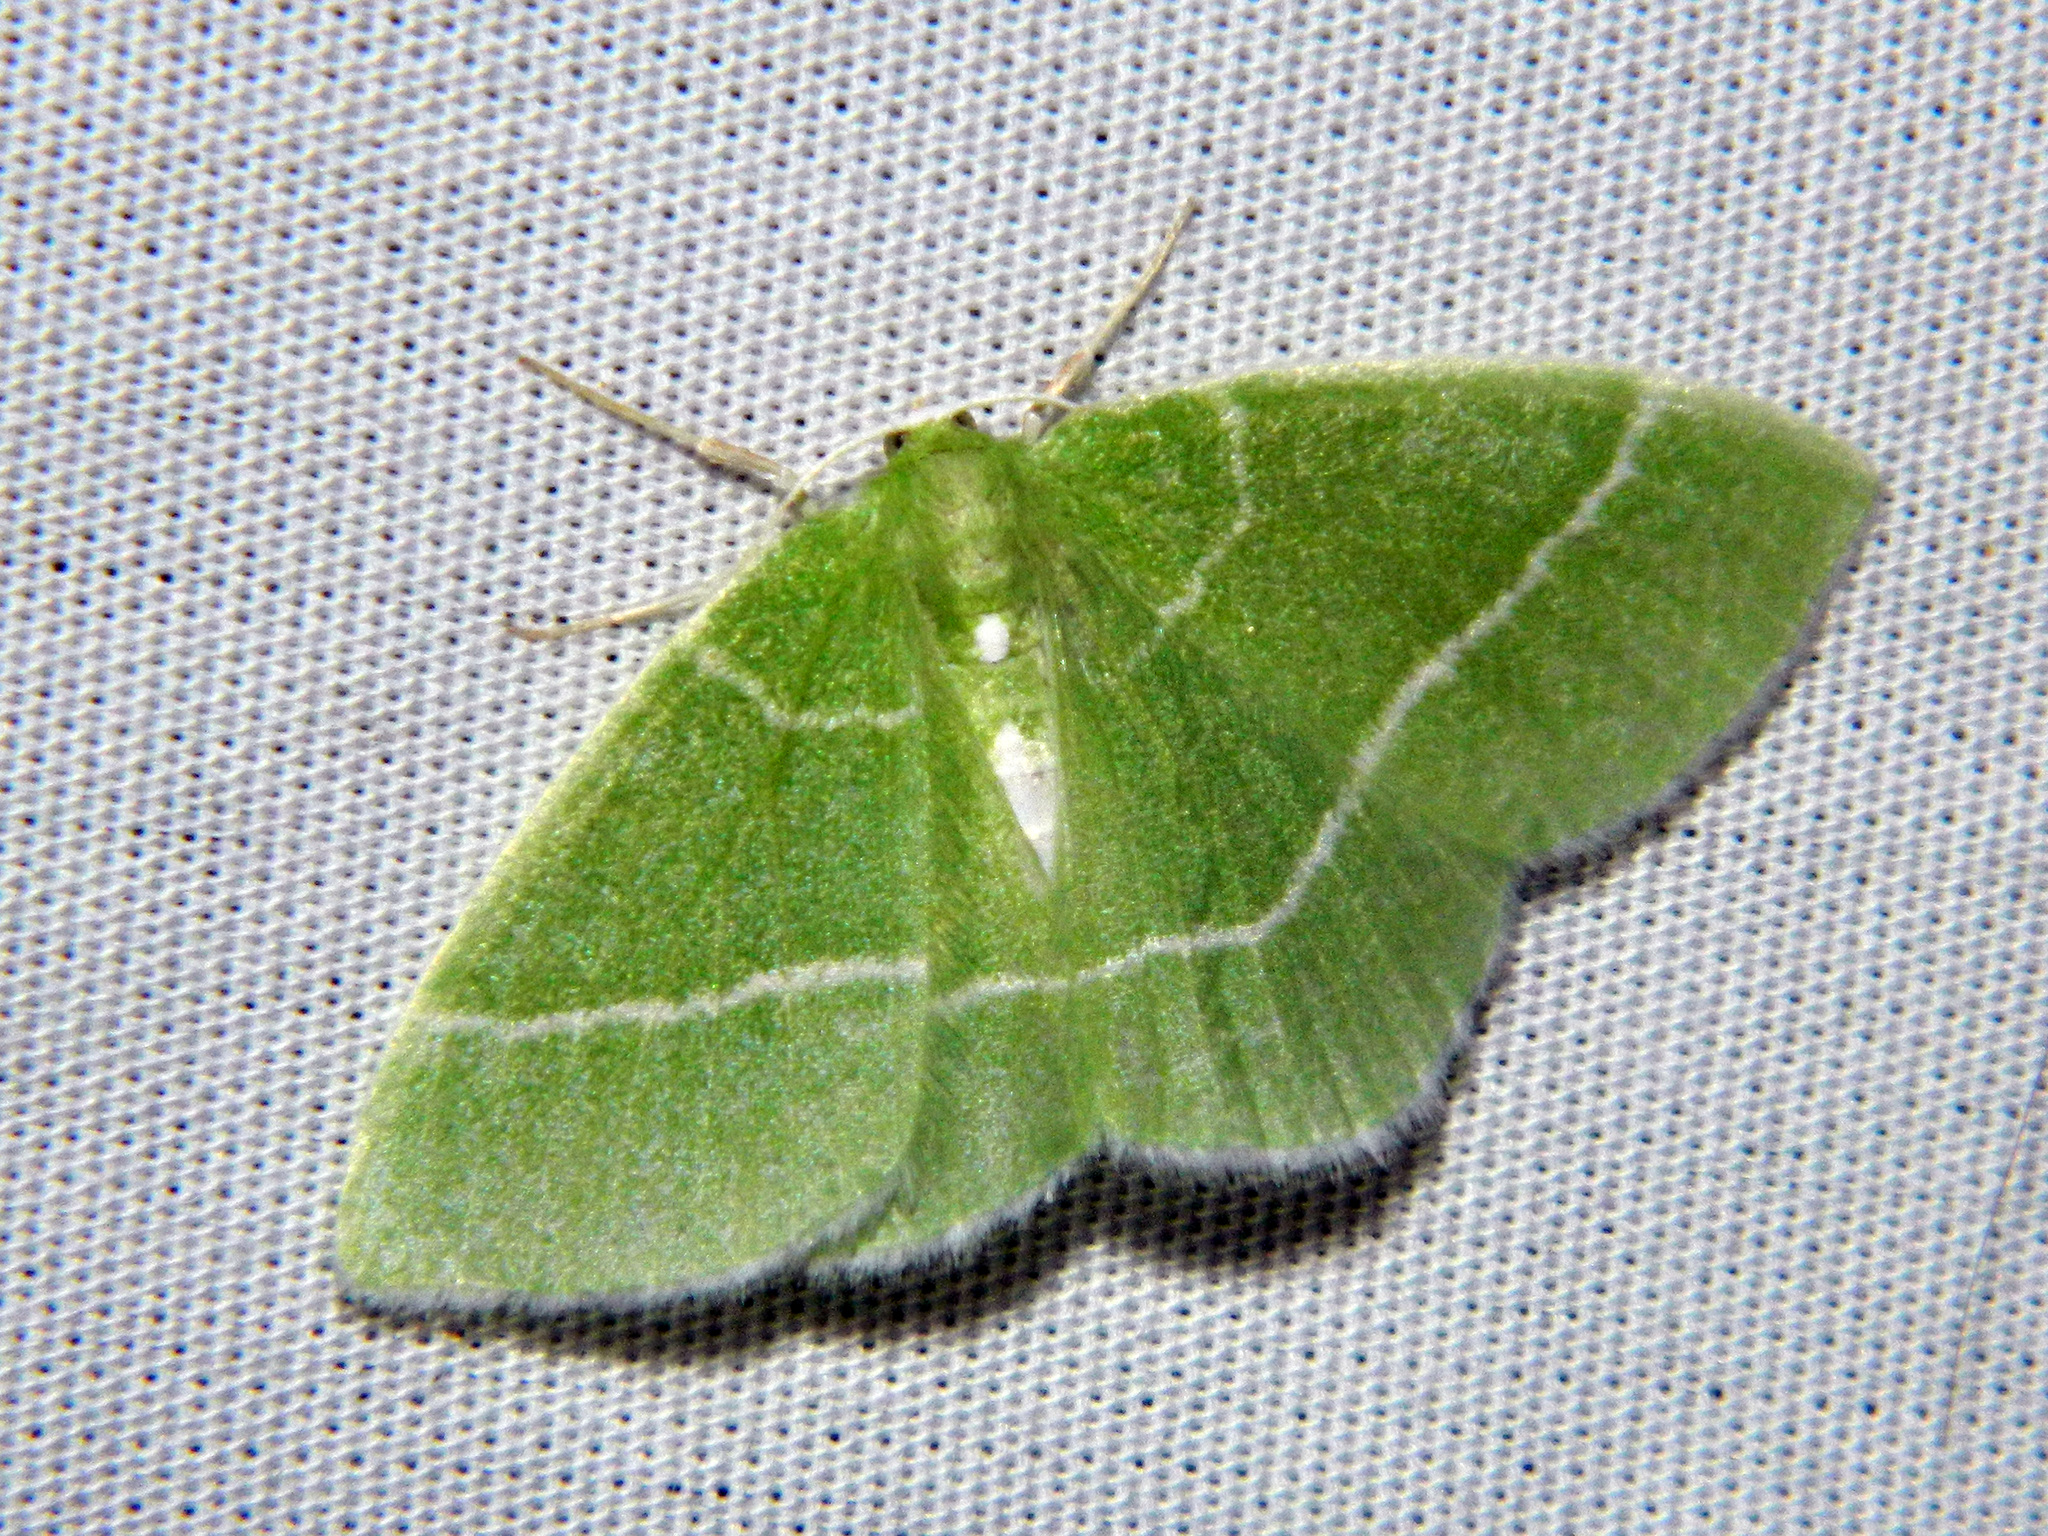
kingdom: Animalia
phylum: Arthropoda
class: Insecta
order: Lepidoptera
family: Geometridae
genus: Nemoria
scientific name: Nemoria mimosaria
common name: White-fringed emerald
